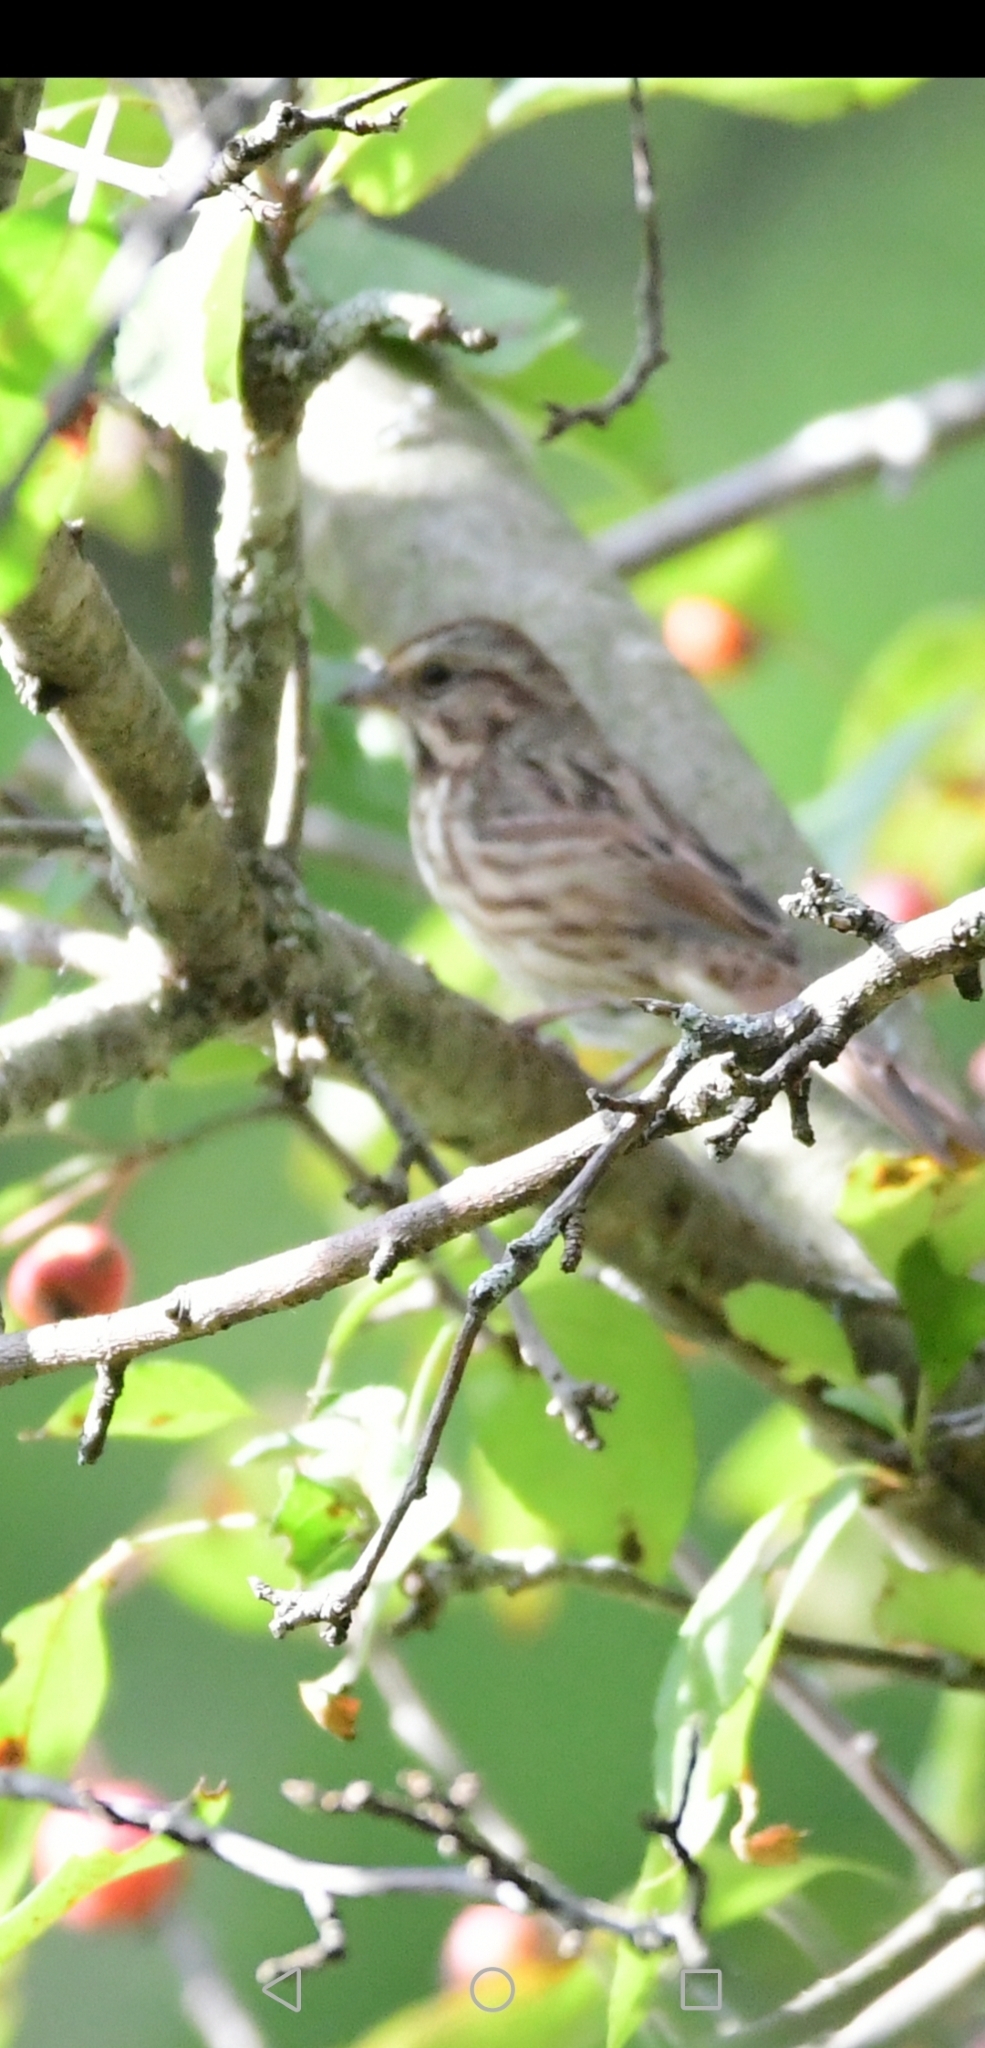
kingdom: Animalia
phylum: Chordata
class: Aves
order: Passeriformes
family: Passerellidae
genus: Melospiza
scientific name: Melospiza melodia
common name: Song sparrow
